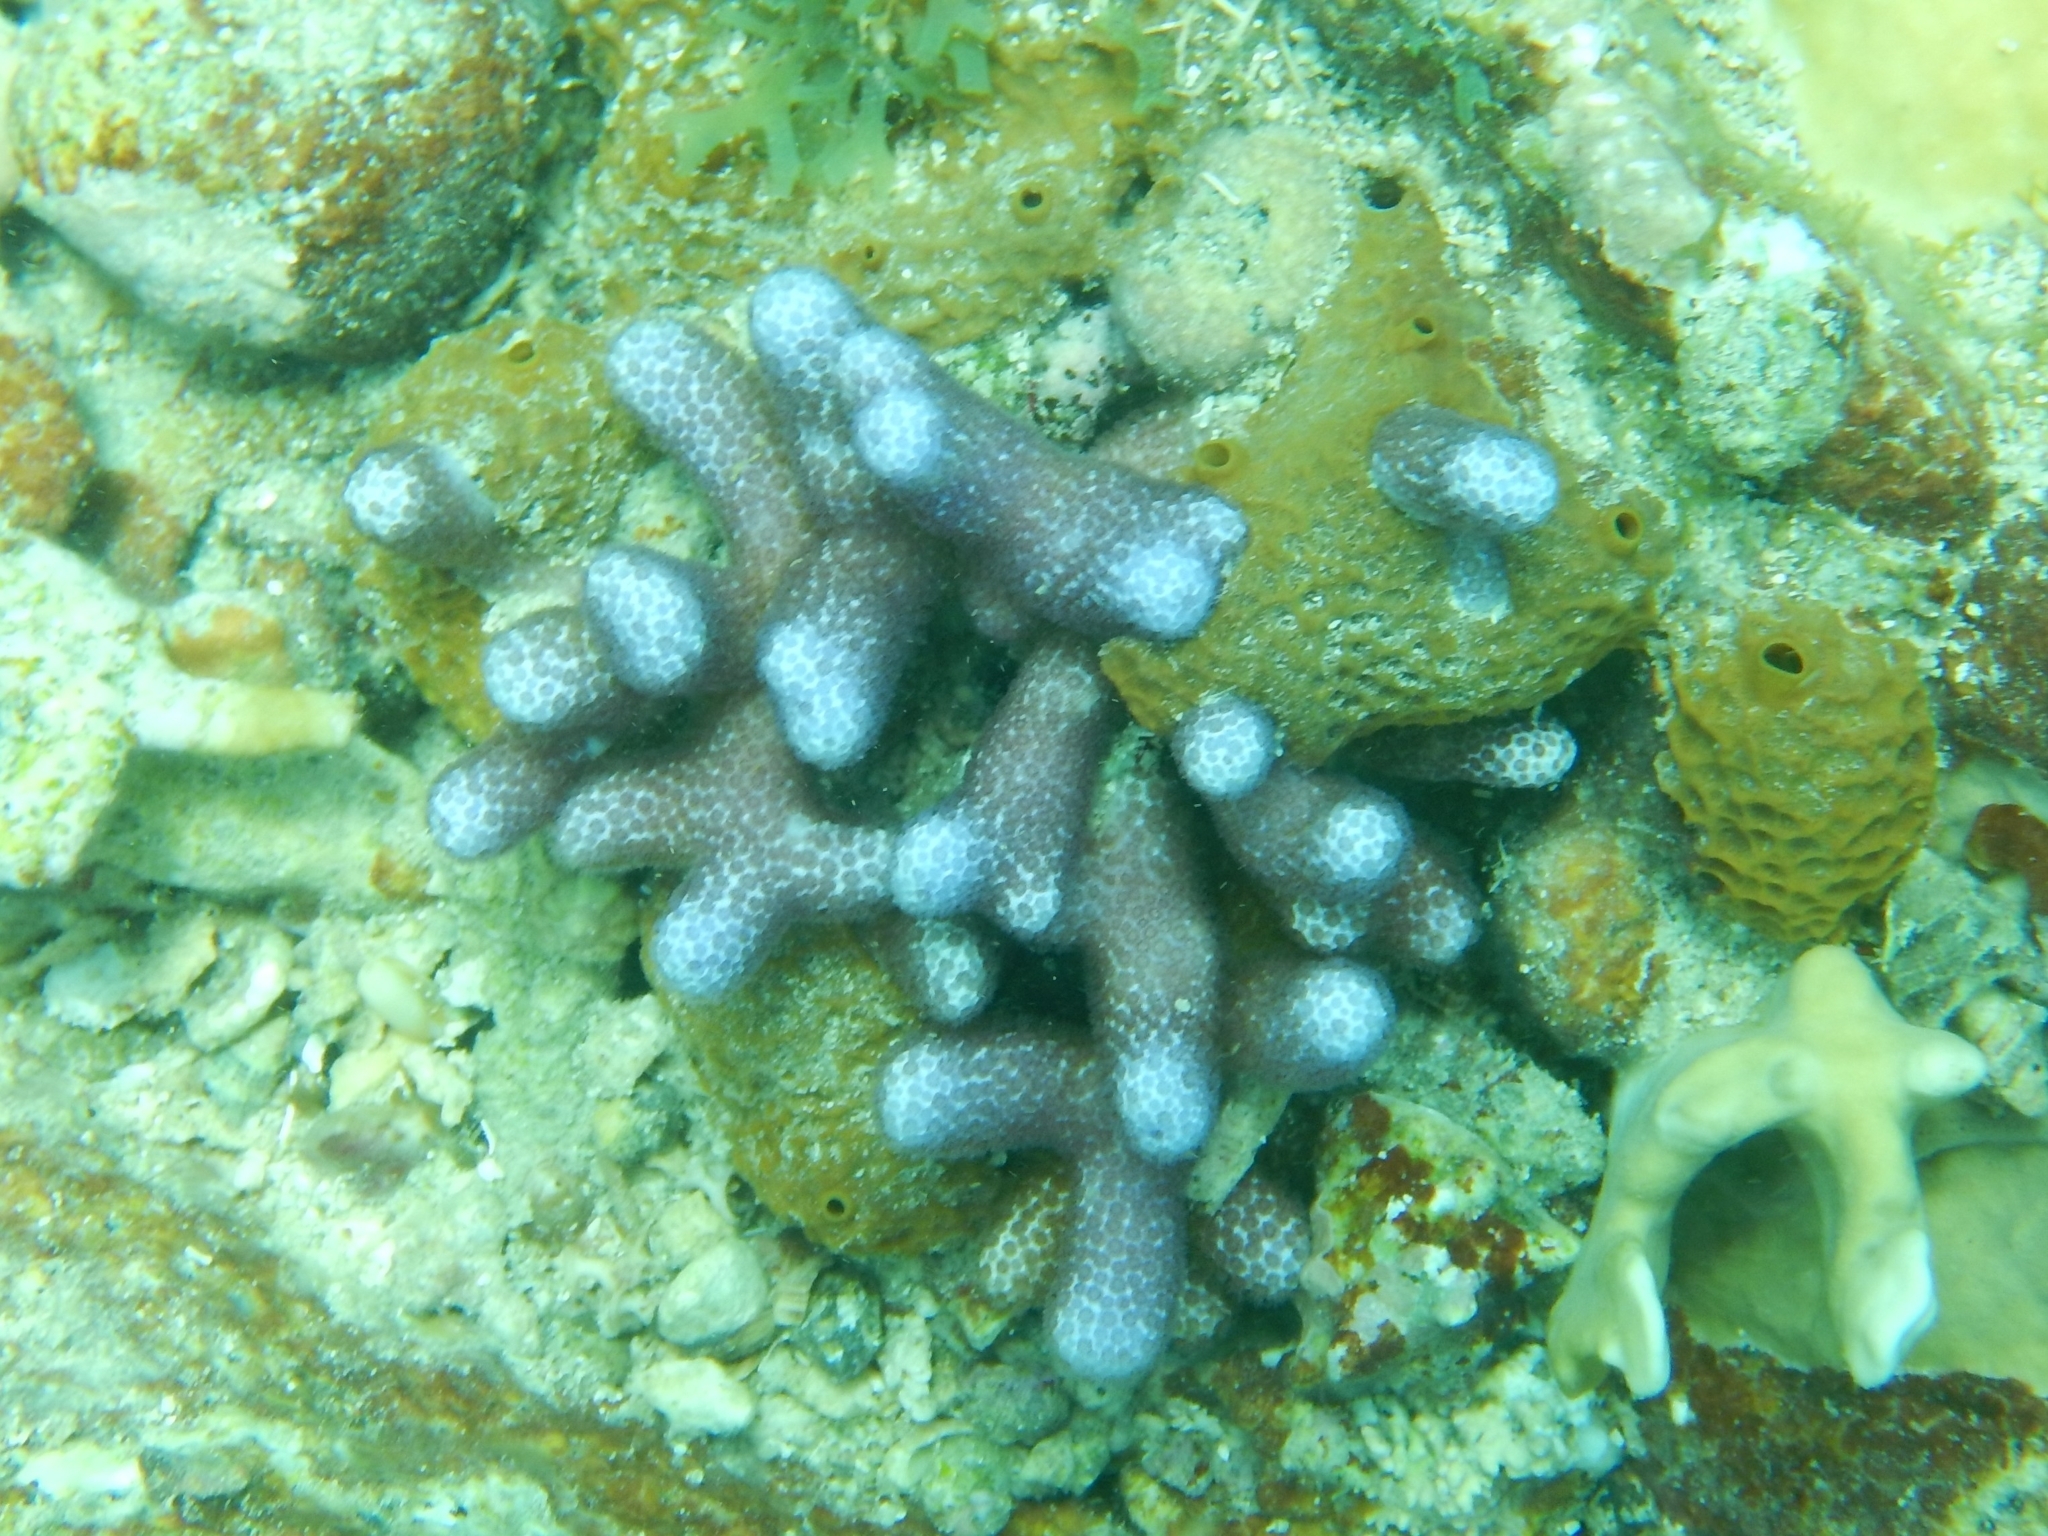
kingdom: Animalia
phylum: Cnidaria
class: Anthozoa
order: Scleractinia
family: Poritidae
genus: Porites
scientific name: Porites porites
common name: Finger coral
